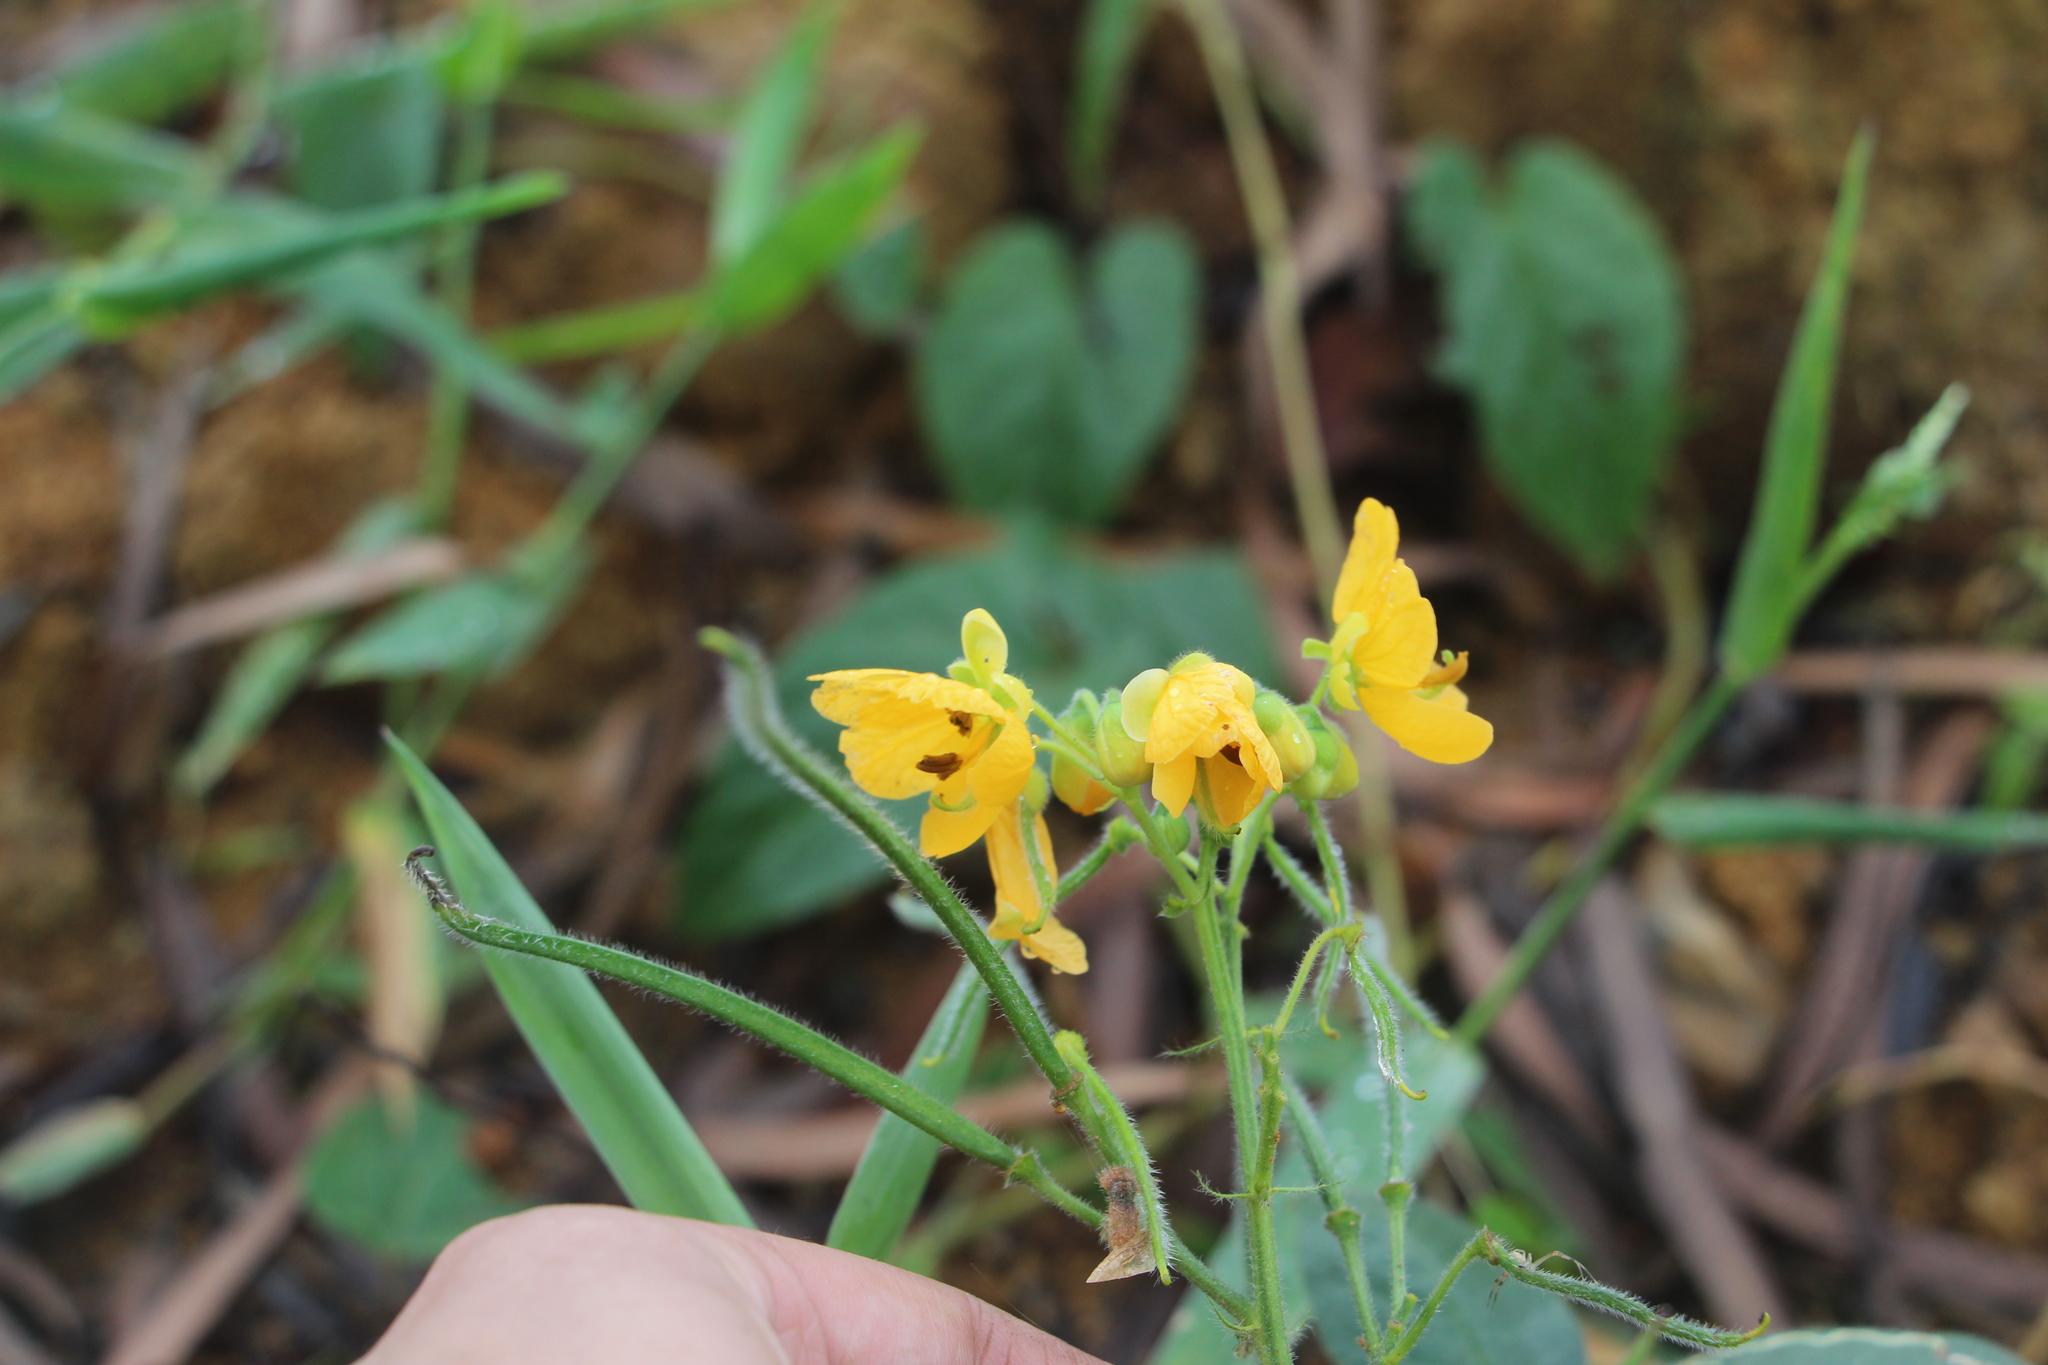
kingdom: Plantae
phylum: Tracheophyta
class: Magnoliopsida
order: Fabales
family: Fabaceae
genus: Senna
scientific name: Senna hirsuta
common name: Woolly senna
